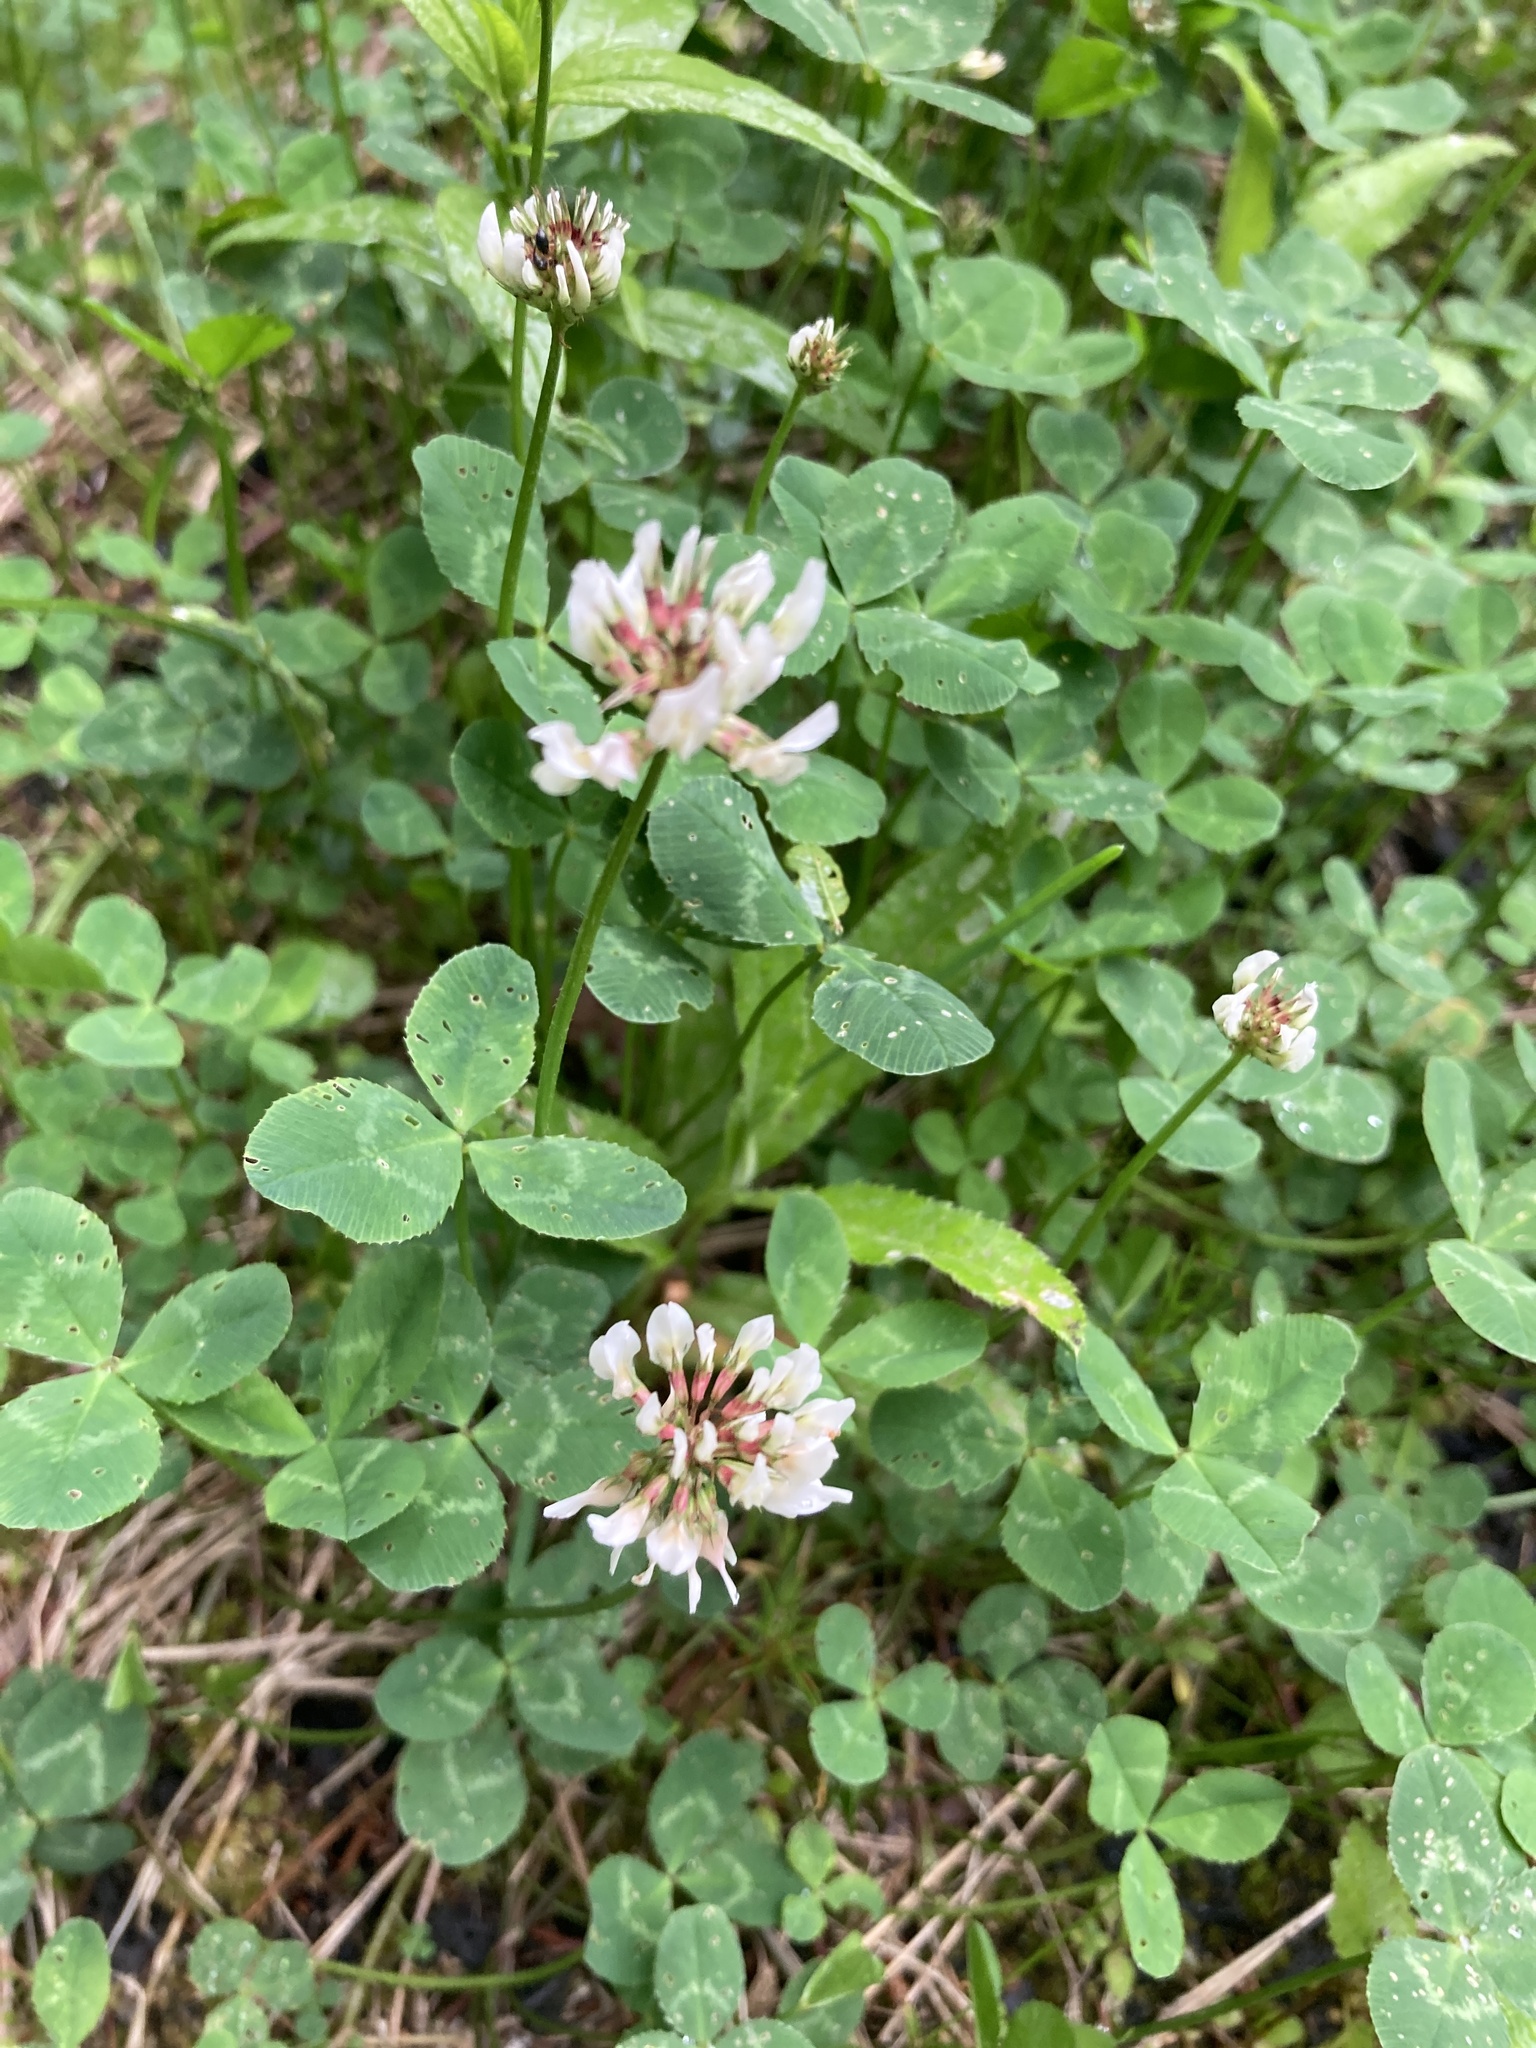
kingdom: Plantae
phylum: Tracheophyta
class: Magnoliopsida
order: Fabales
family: Fabaceae
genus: Trifolium
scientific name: Trifolium repens
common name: White clover
